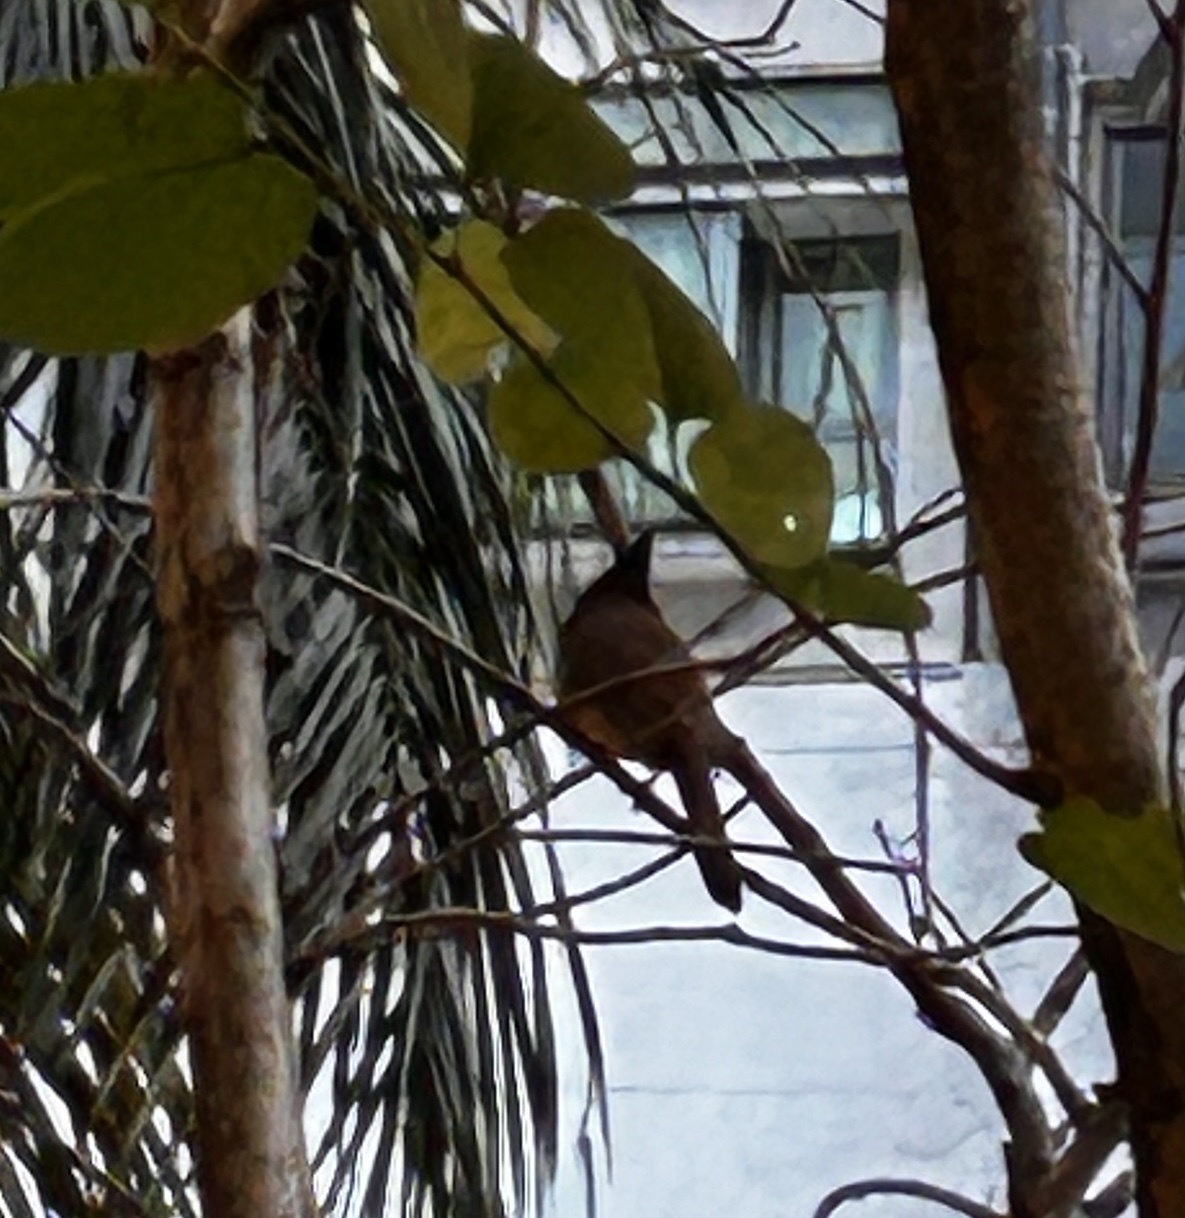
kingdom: Animalia
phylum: Chordata
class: Aves
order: Passeriformes
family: Pycnonotidae
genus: Pycnonotus
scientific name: Pycnonotus jocosus
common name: Red-whiskered bulbul
